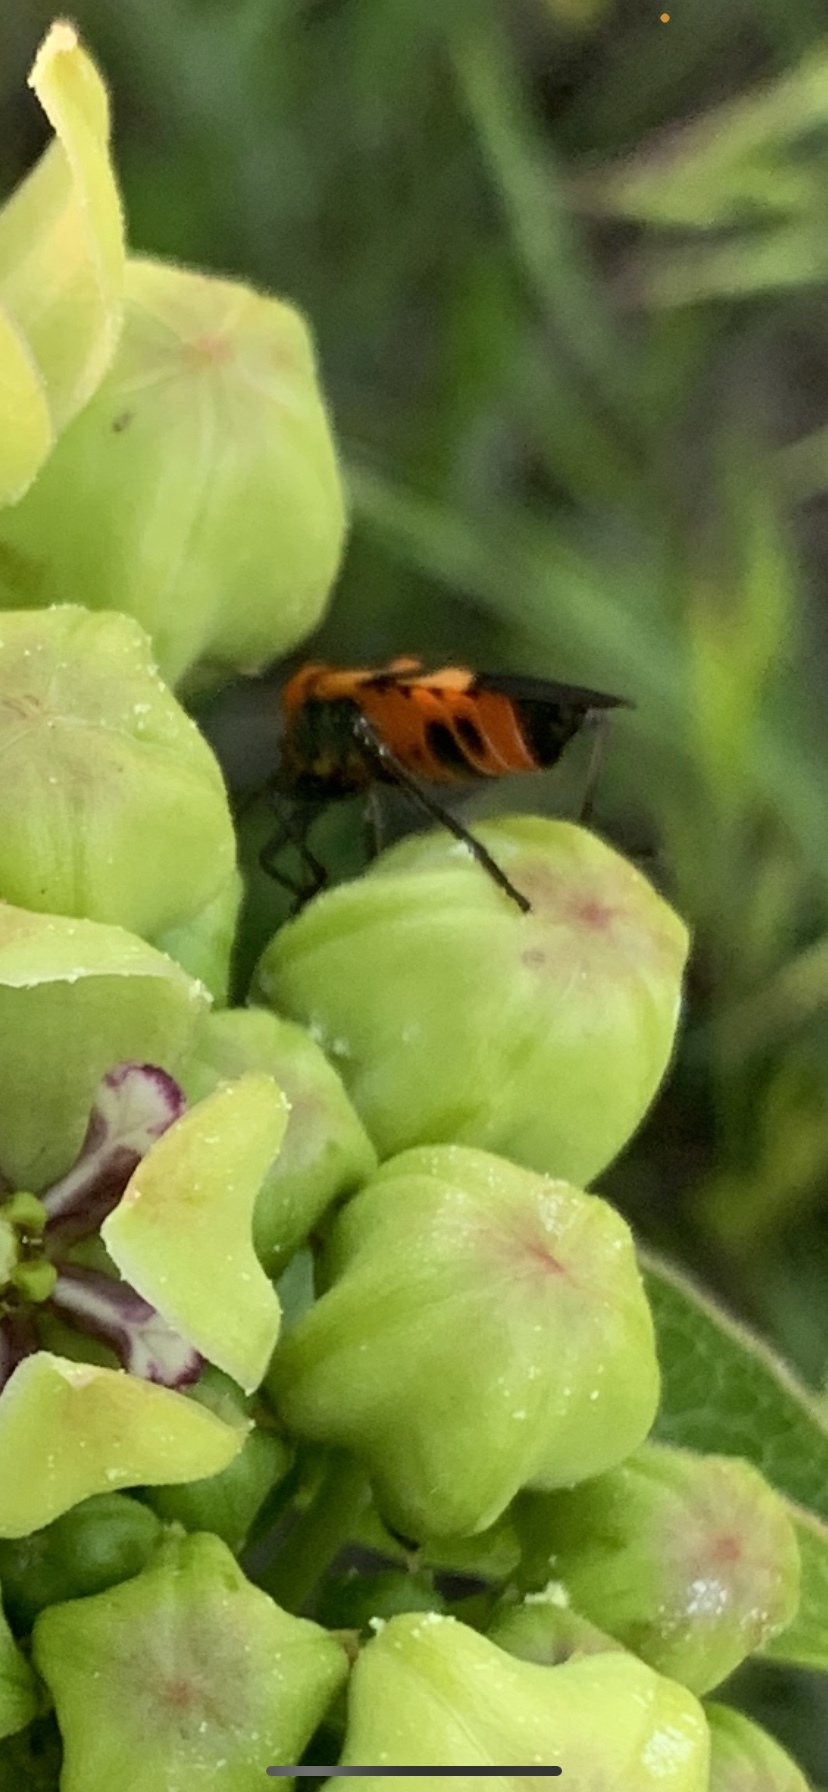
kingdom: Animalia
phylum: Arthropoda
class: Insecta
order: Hemiptera
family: Lygaeidae
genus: Oncopeltus
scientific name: Oncopeltus fasciatus
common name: Large milkweed bug
